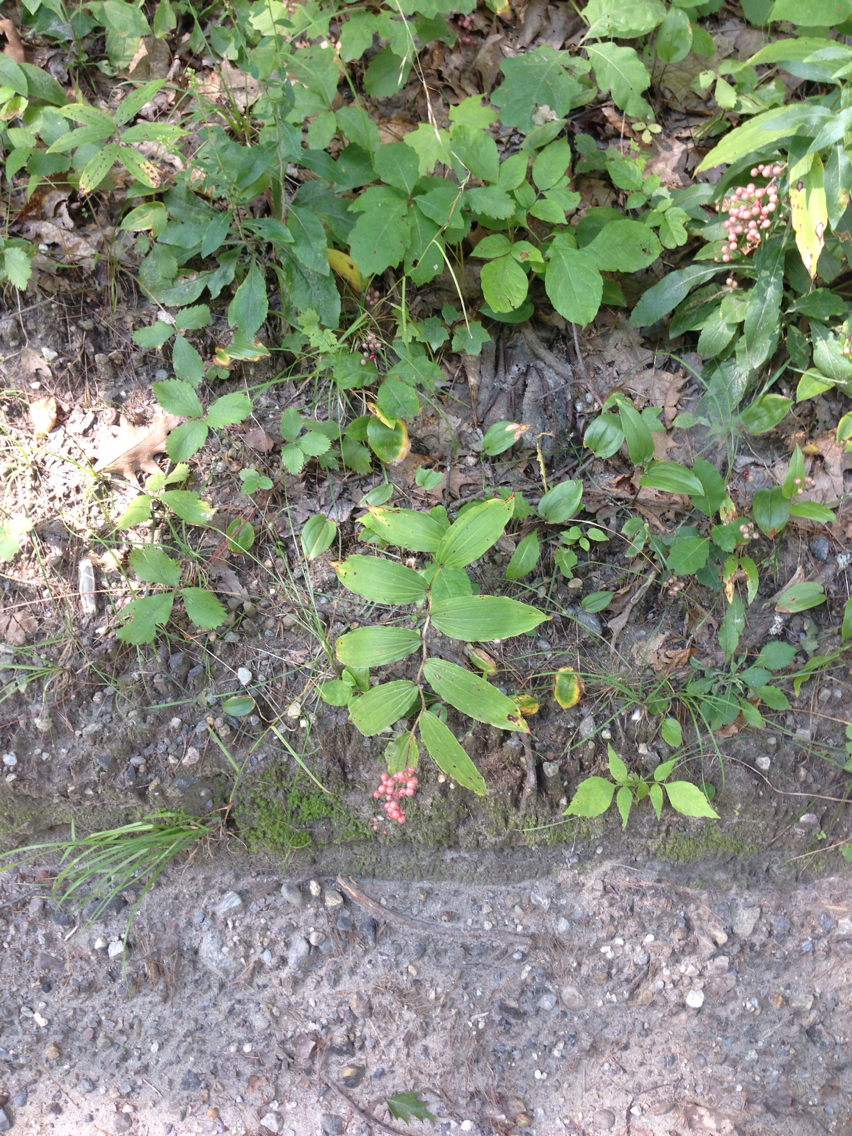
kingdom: Plantae
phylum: Tracheophyta
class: Liliopsida
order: Asparagales
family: Asparagaceae
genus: Maianthemum
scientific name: Maianthemum canadense
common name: False lily-of-the-valley
